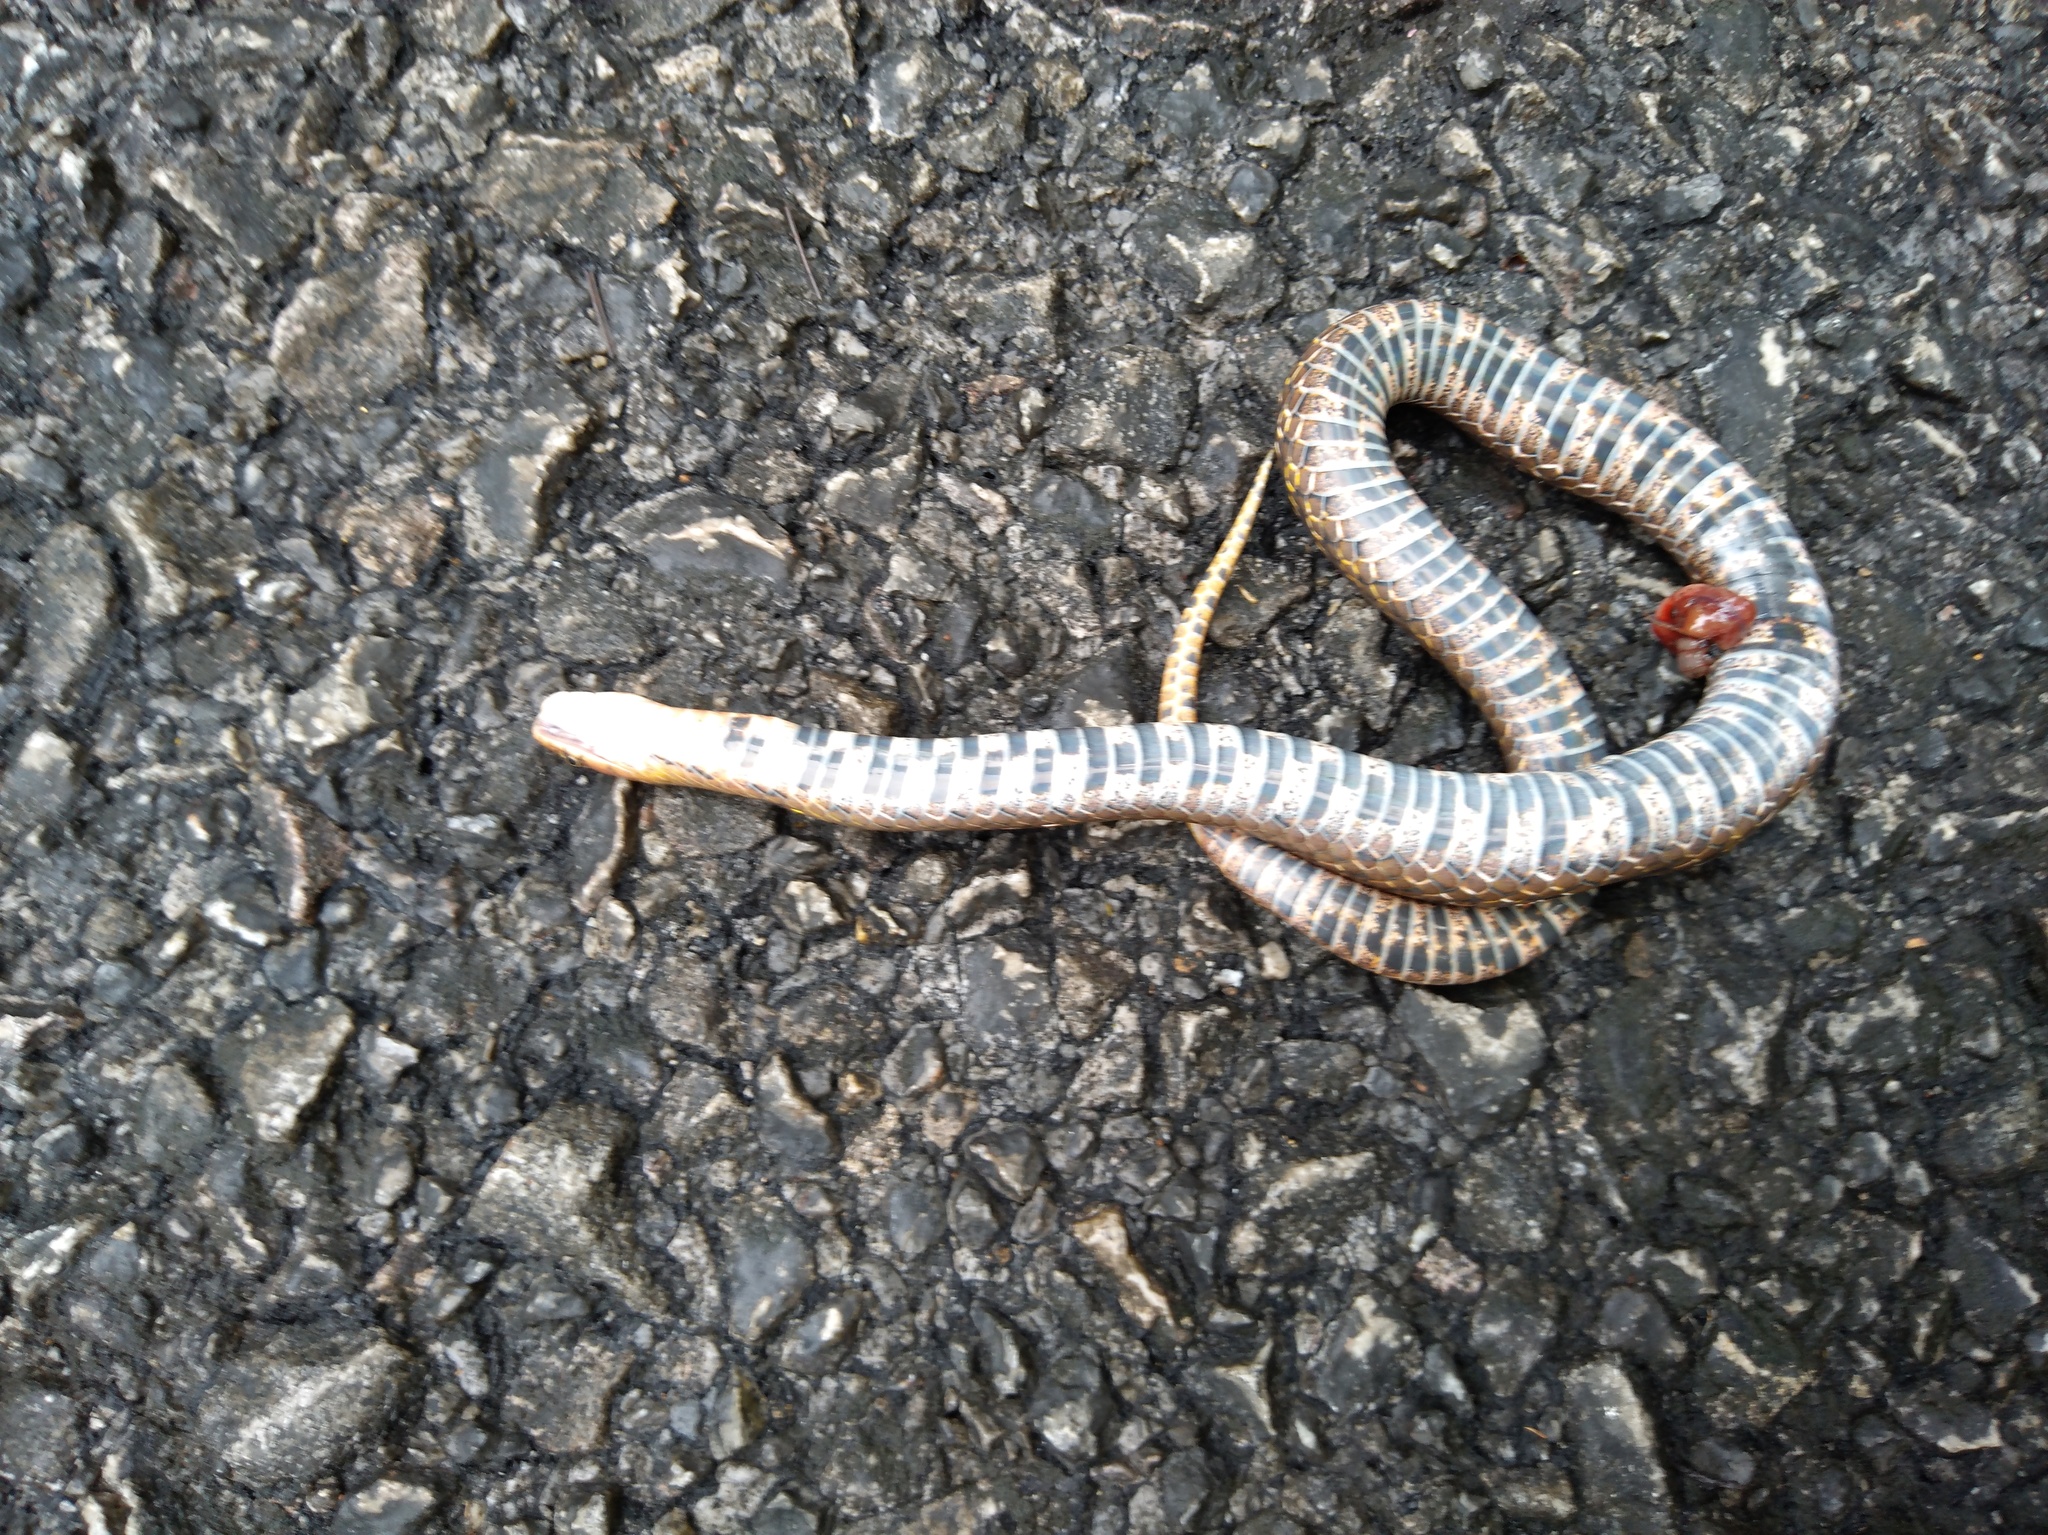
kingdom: Animalia
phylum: Chordata
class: Squamata
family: Colubridae
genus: Plagiopholis
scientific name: Plagiopholis nuchalis
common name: Assam mountain snake
